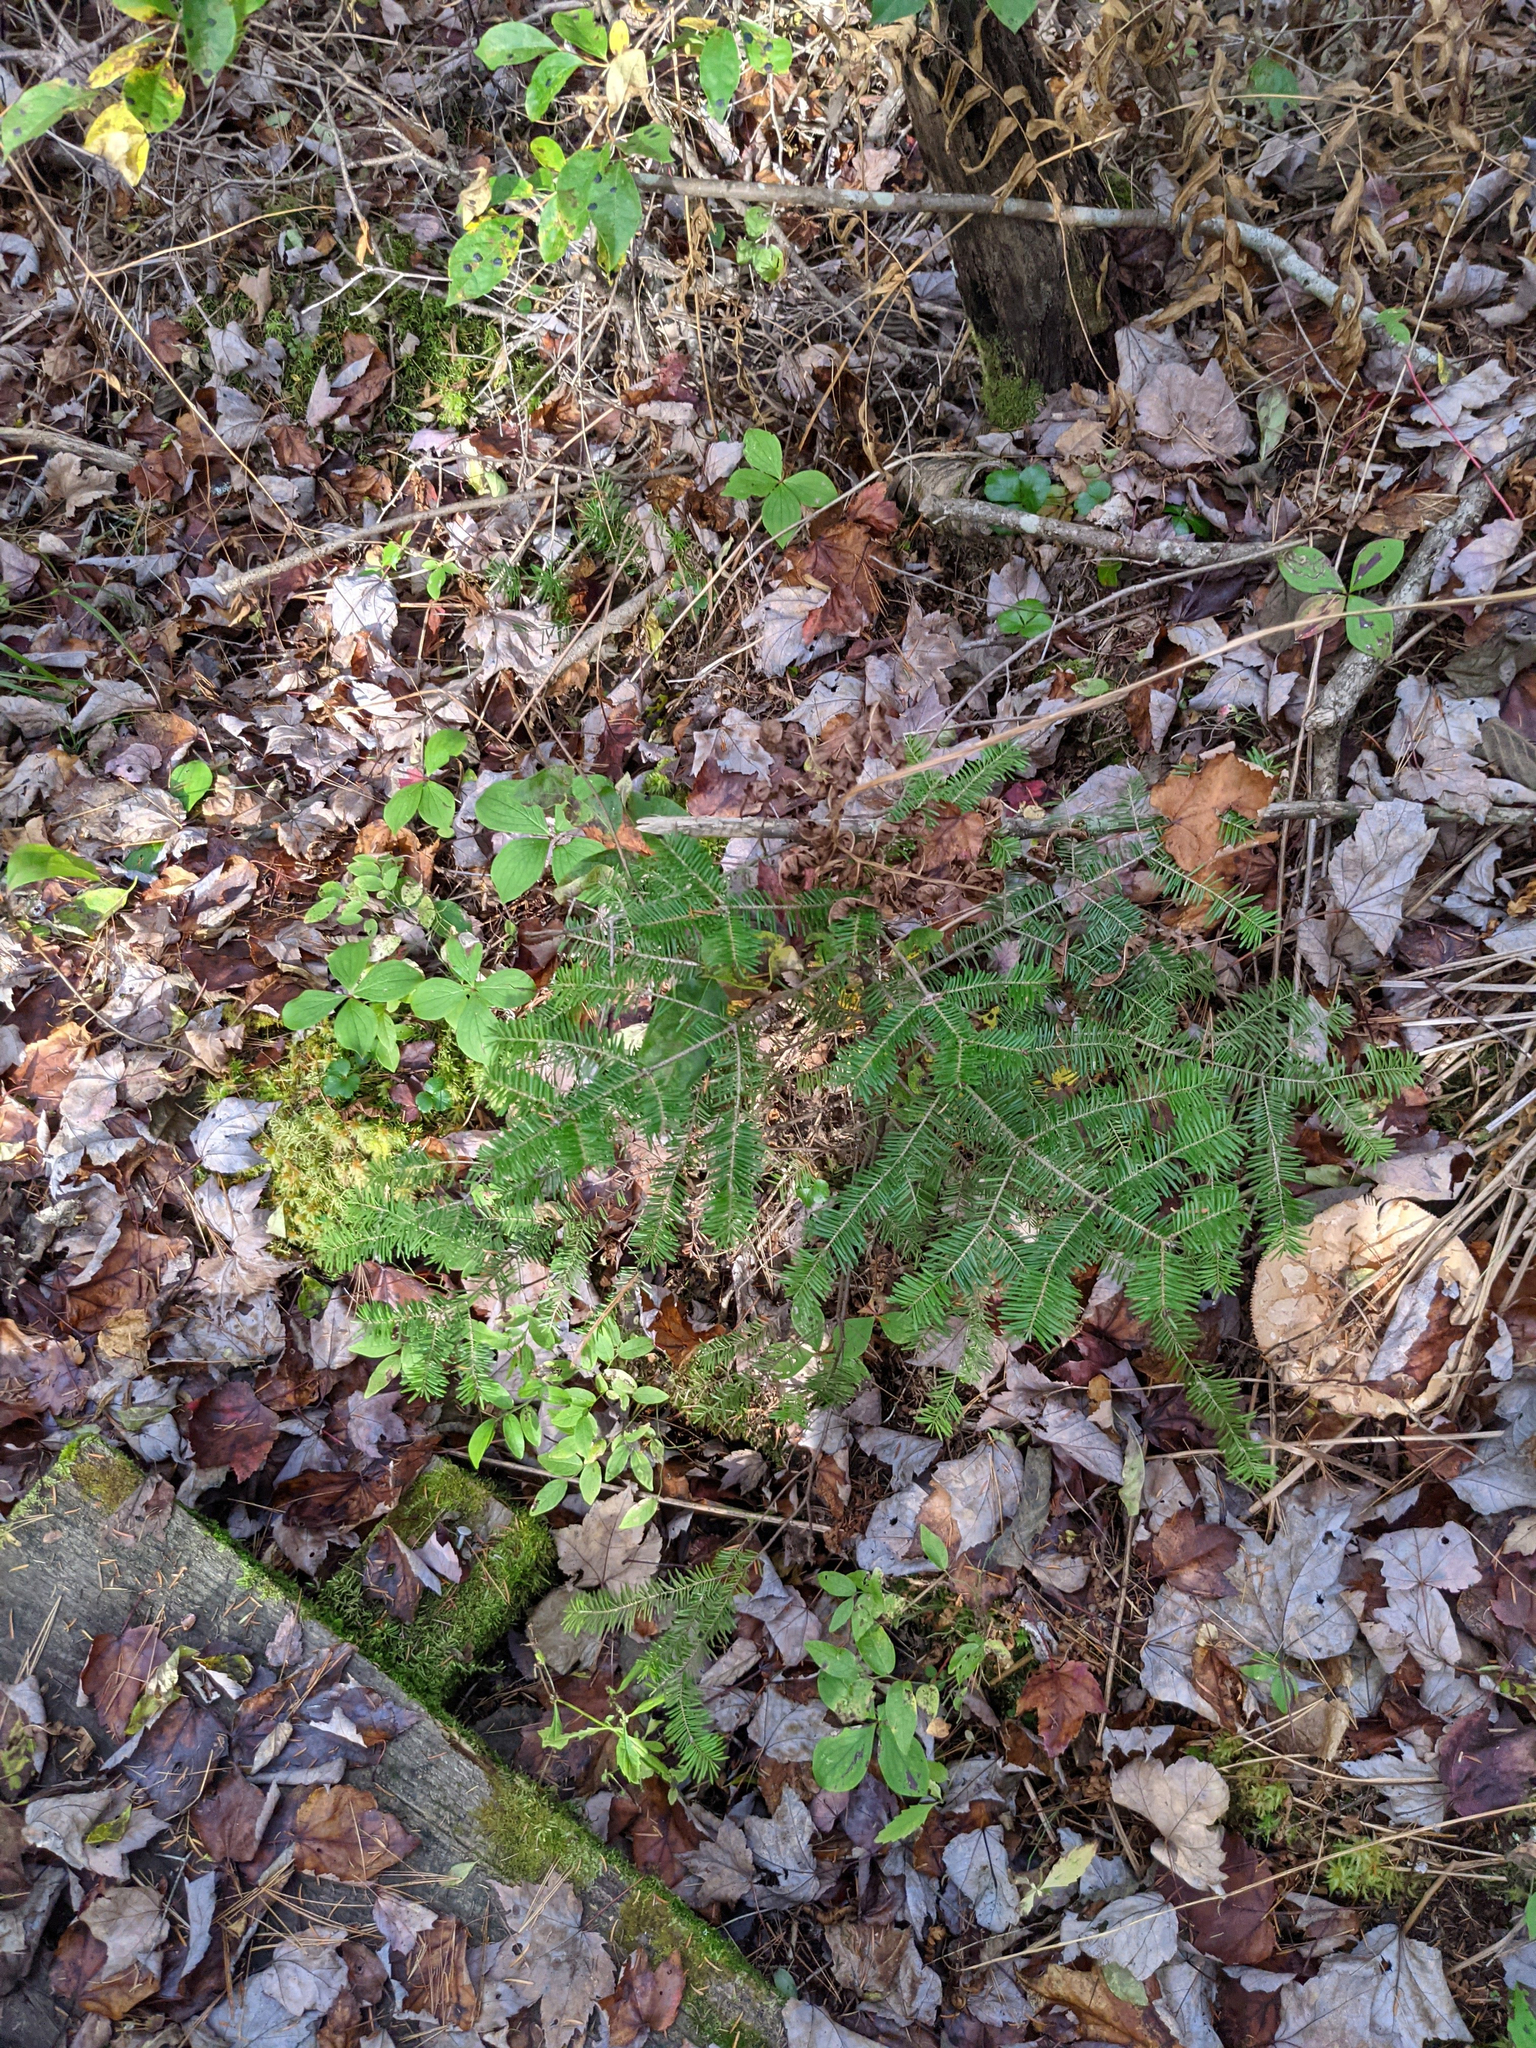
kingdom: Plantae
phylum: Tracheophyta
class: Pinopsida
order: Pinales
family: Pinaceae
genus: Abies
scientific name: Abies balsamea
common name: Balsam fir
